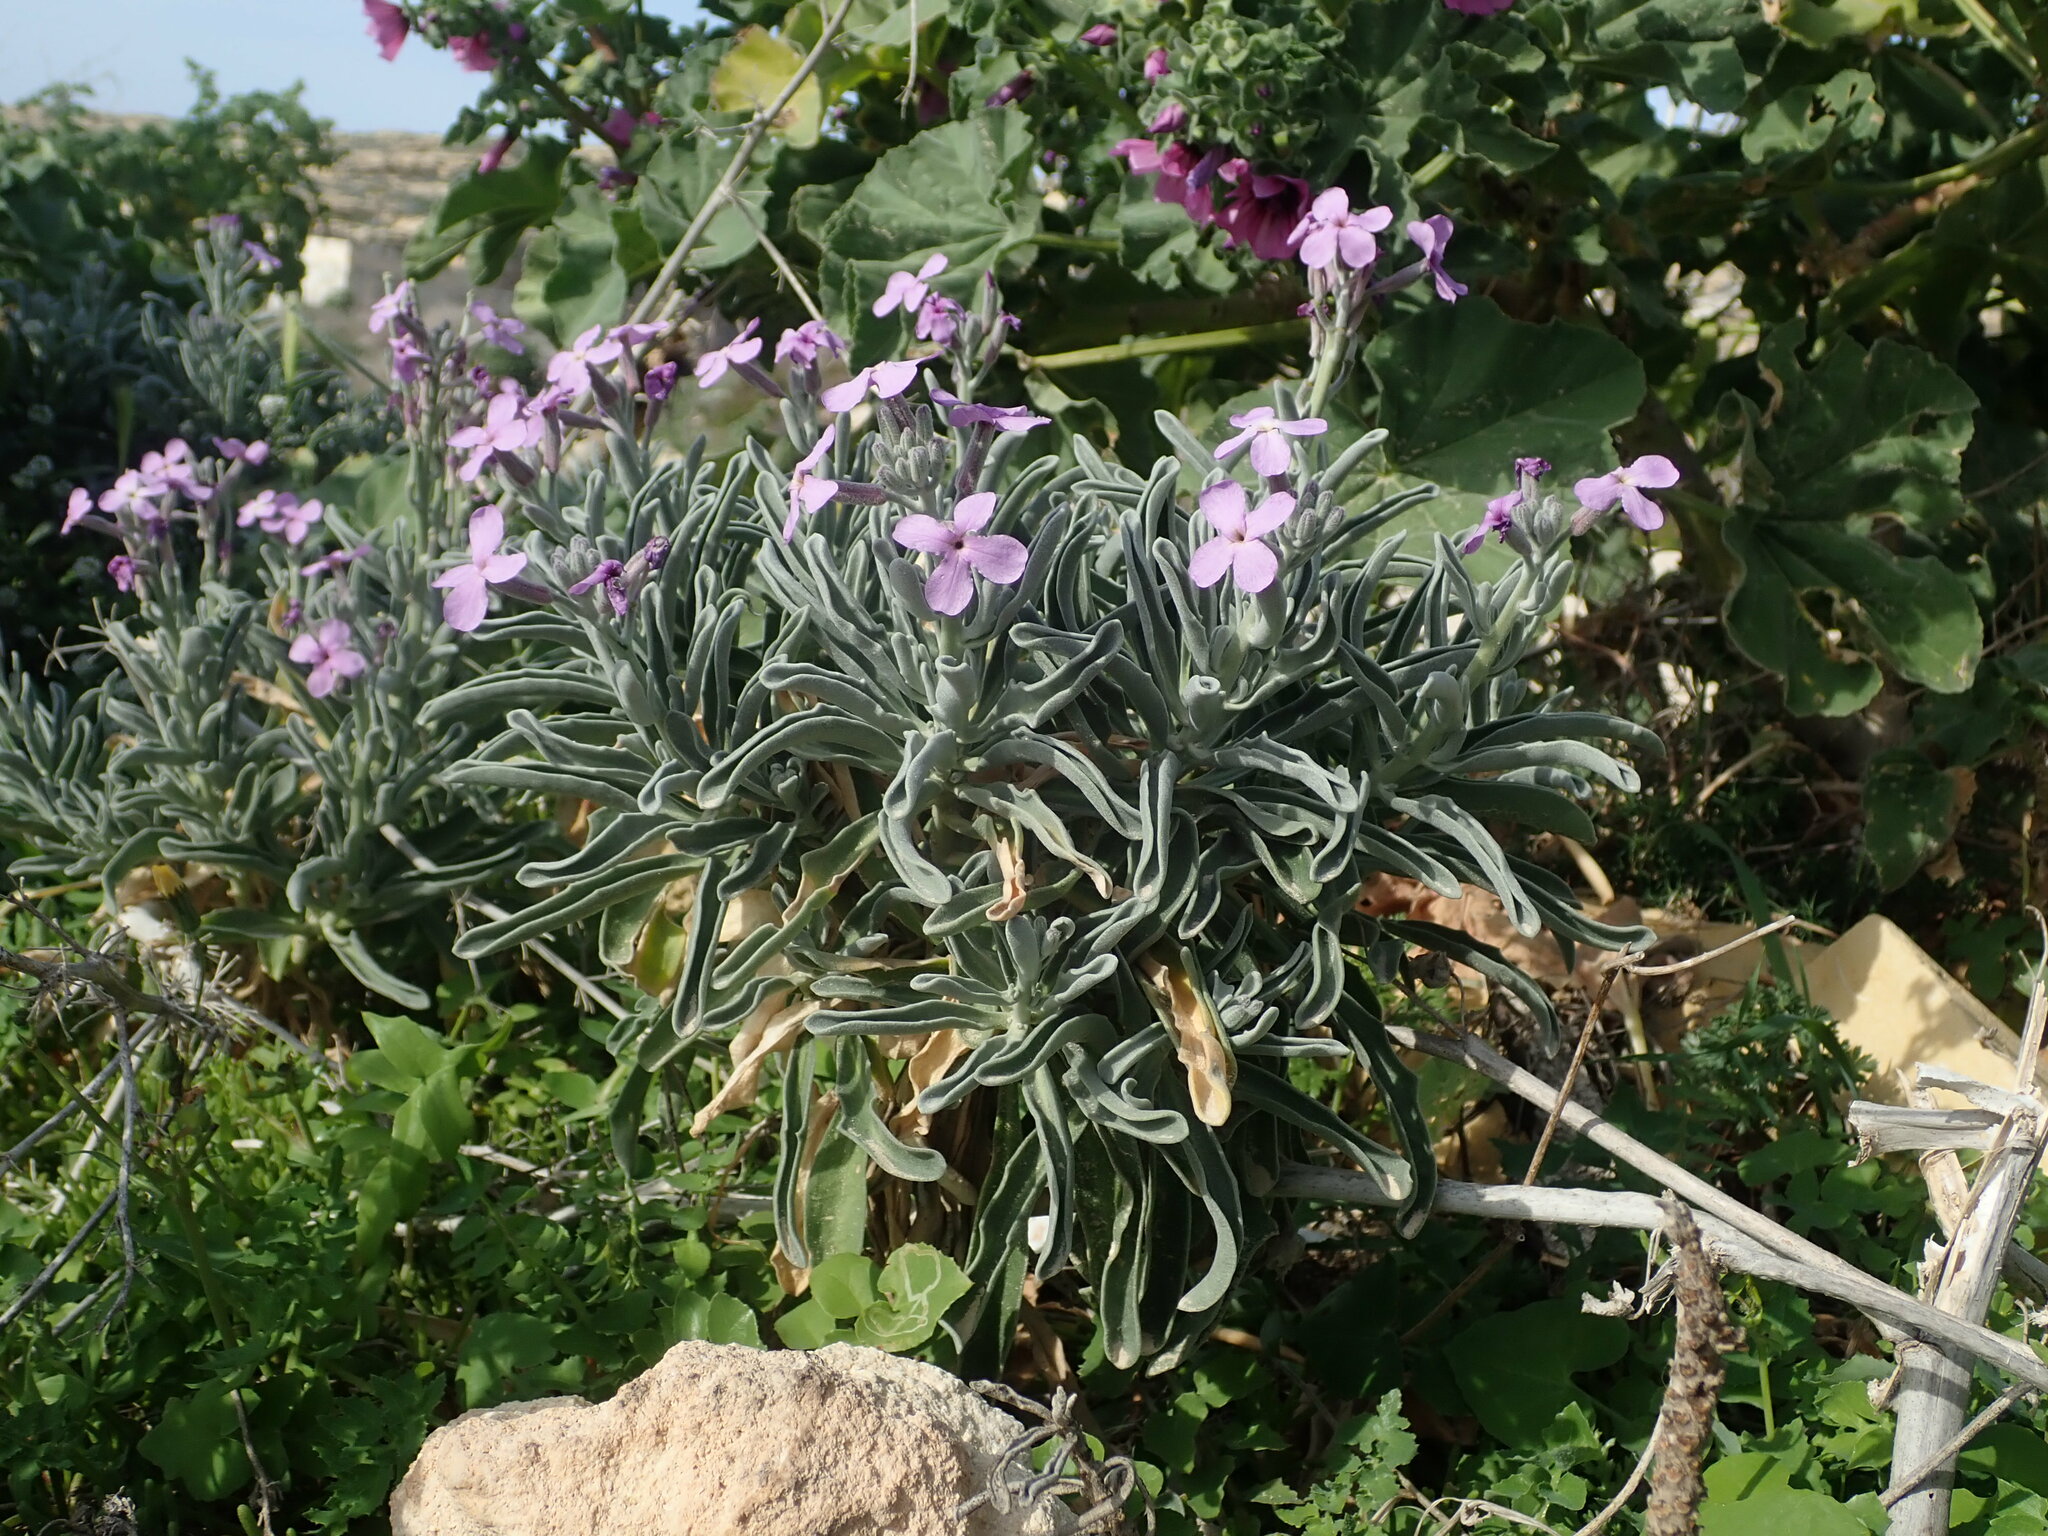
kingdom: Plantae
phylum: Tracheophyta
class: Magnoliopsida
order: Brassicales
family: Brassicaceae
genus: Matthiola
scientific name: Matthiola incana
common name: Hoary stock
